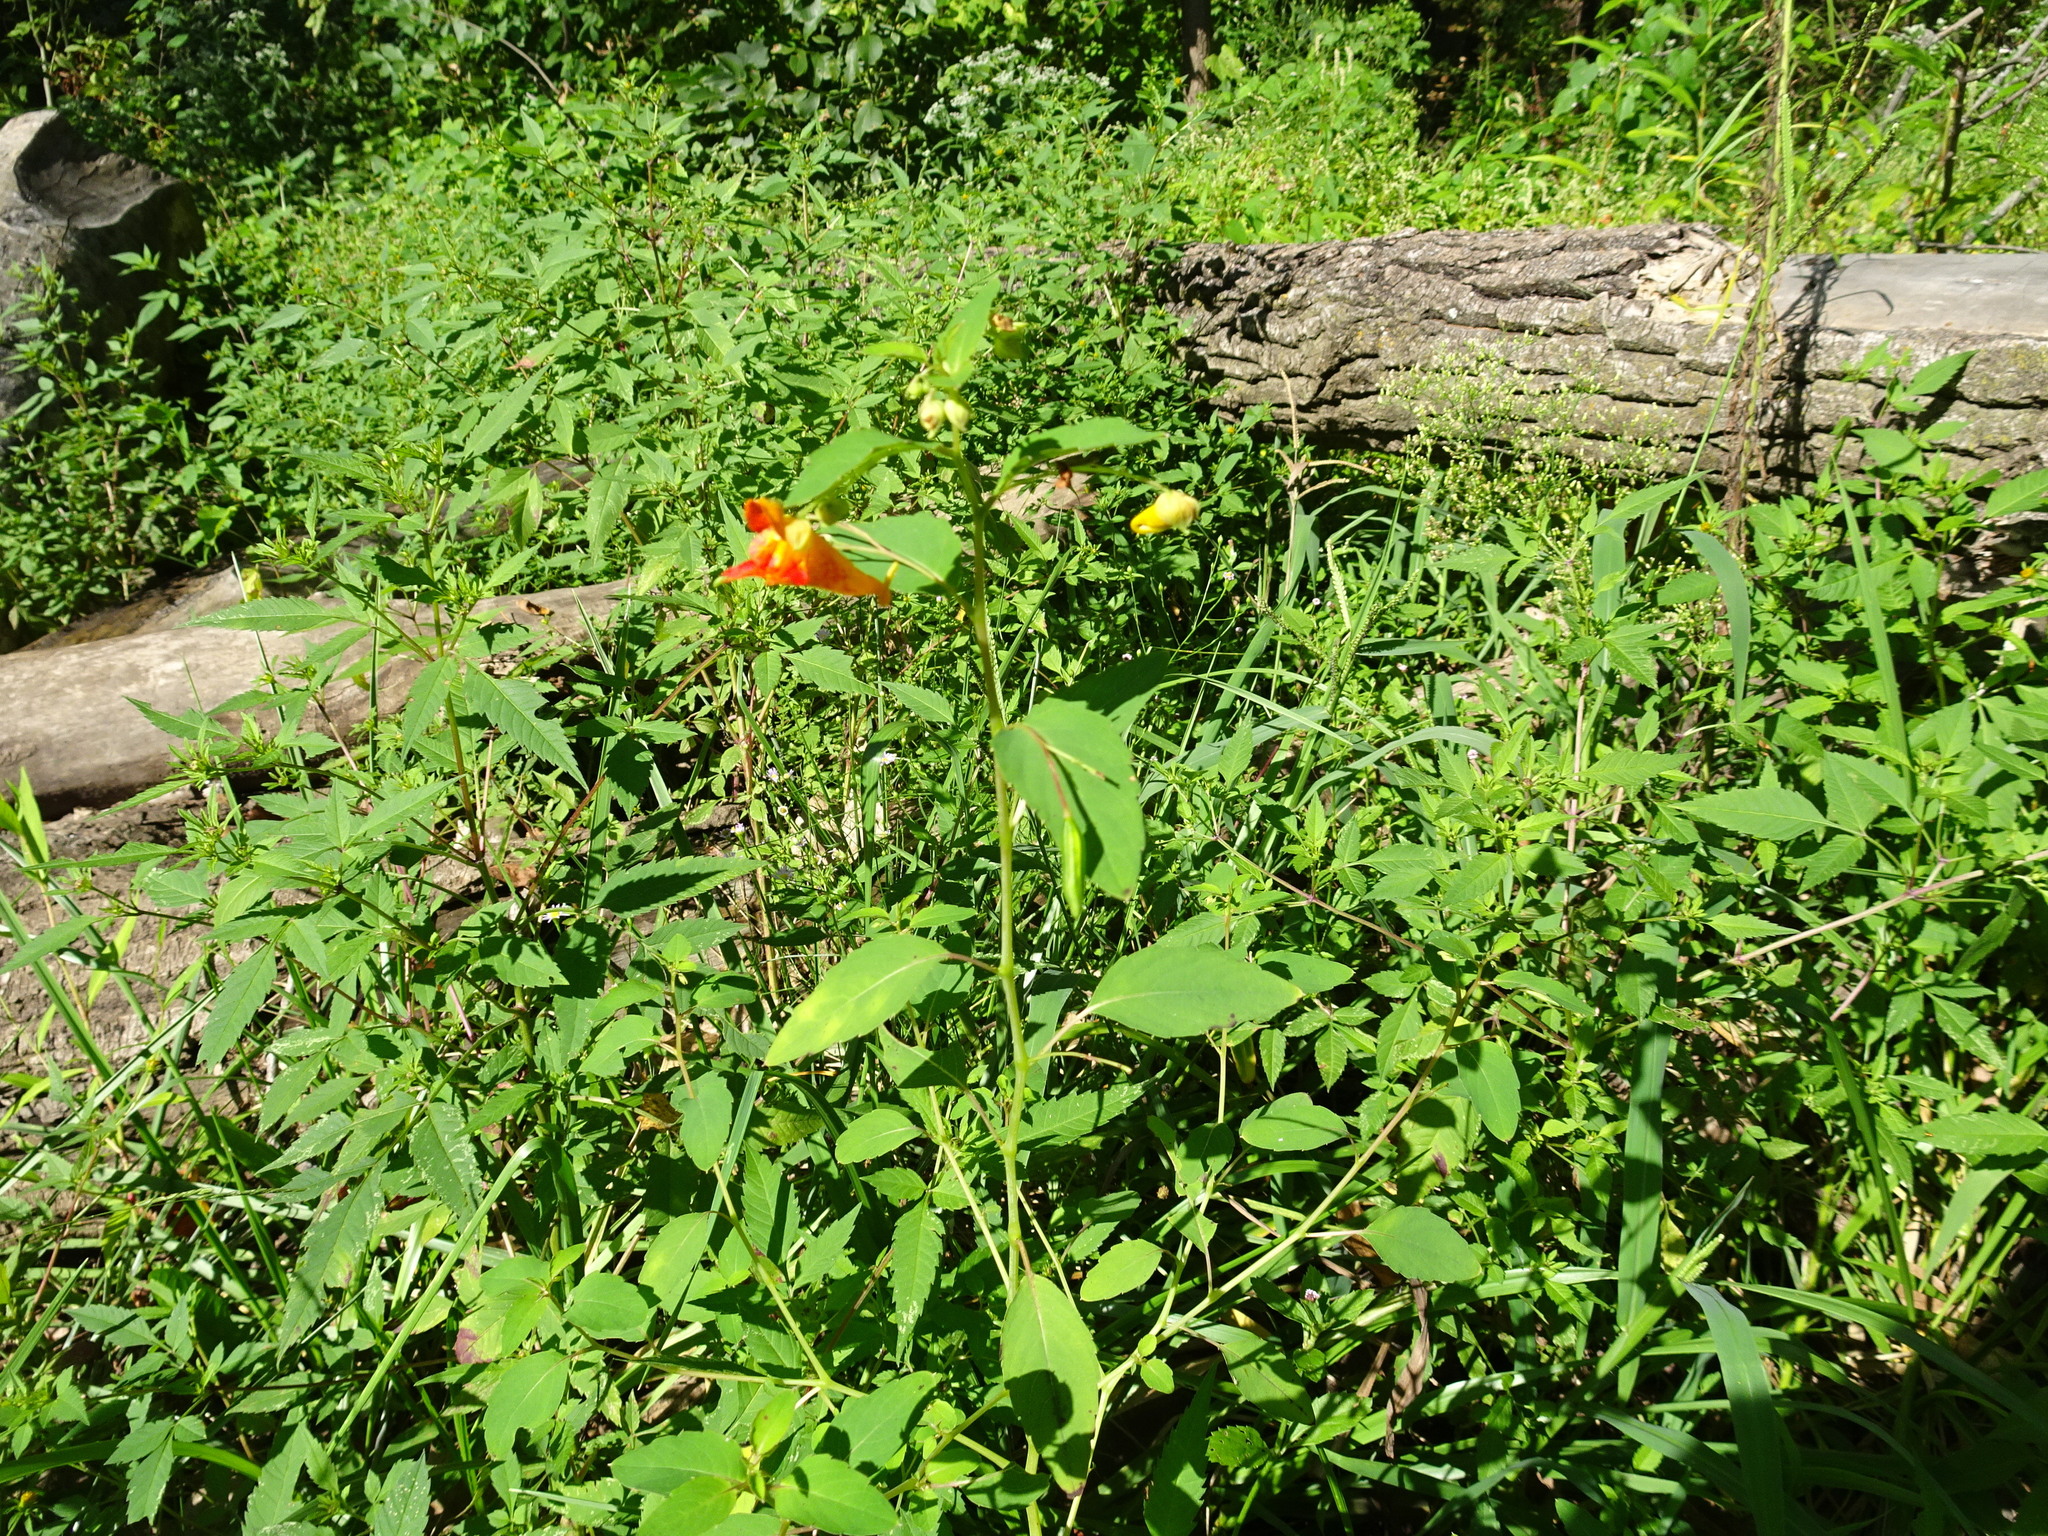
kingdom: Plantae
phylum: Tracheophyta
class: Magnoliopsida
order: Ericales
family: Balsaminaceae
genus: Impatiens
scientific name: Impatiens capensis
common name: Orange balsam
